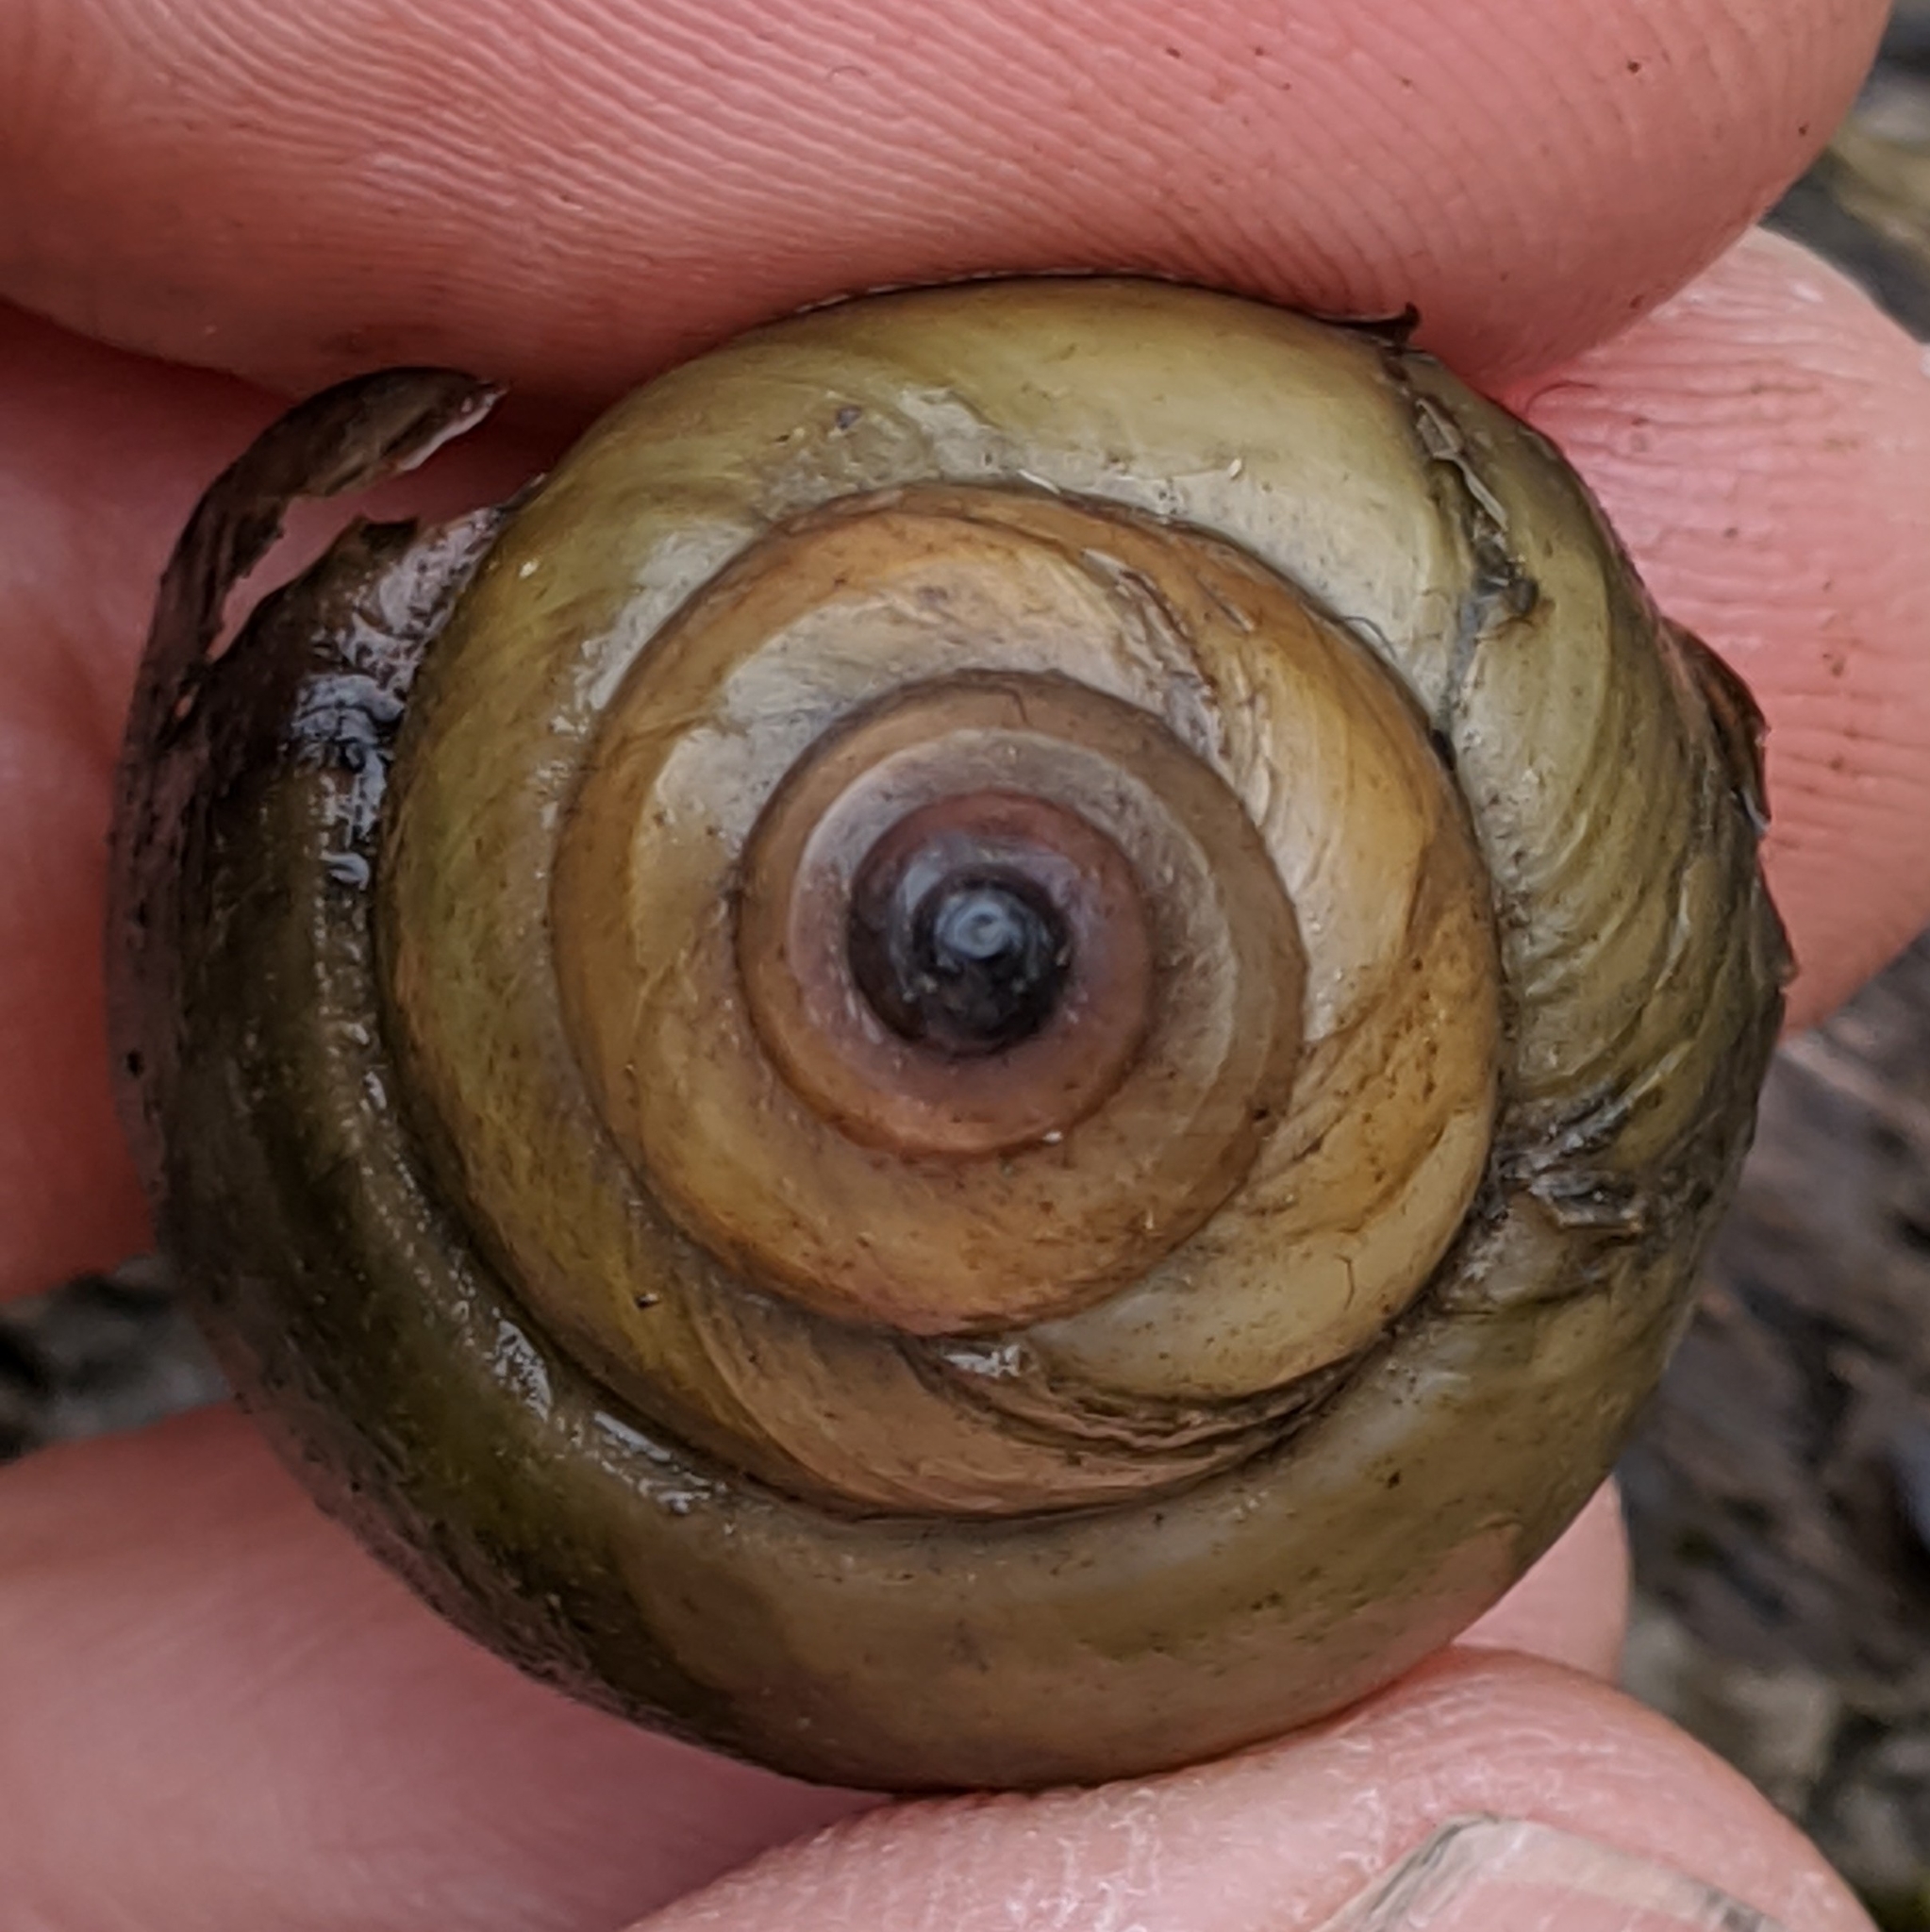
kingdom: Animalia
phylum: Mollusca
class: Gastropoda
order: Architaenioglossa
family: Viviparidae
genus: Cipangopaludina
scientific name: Cipangopaludina chinensis
